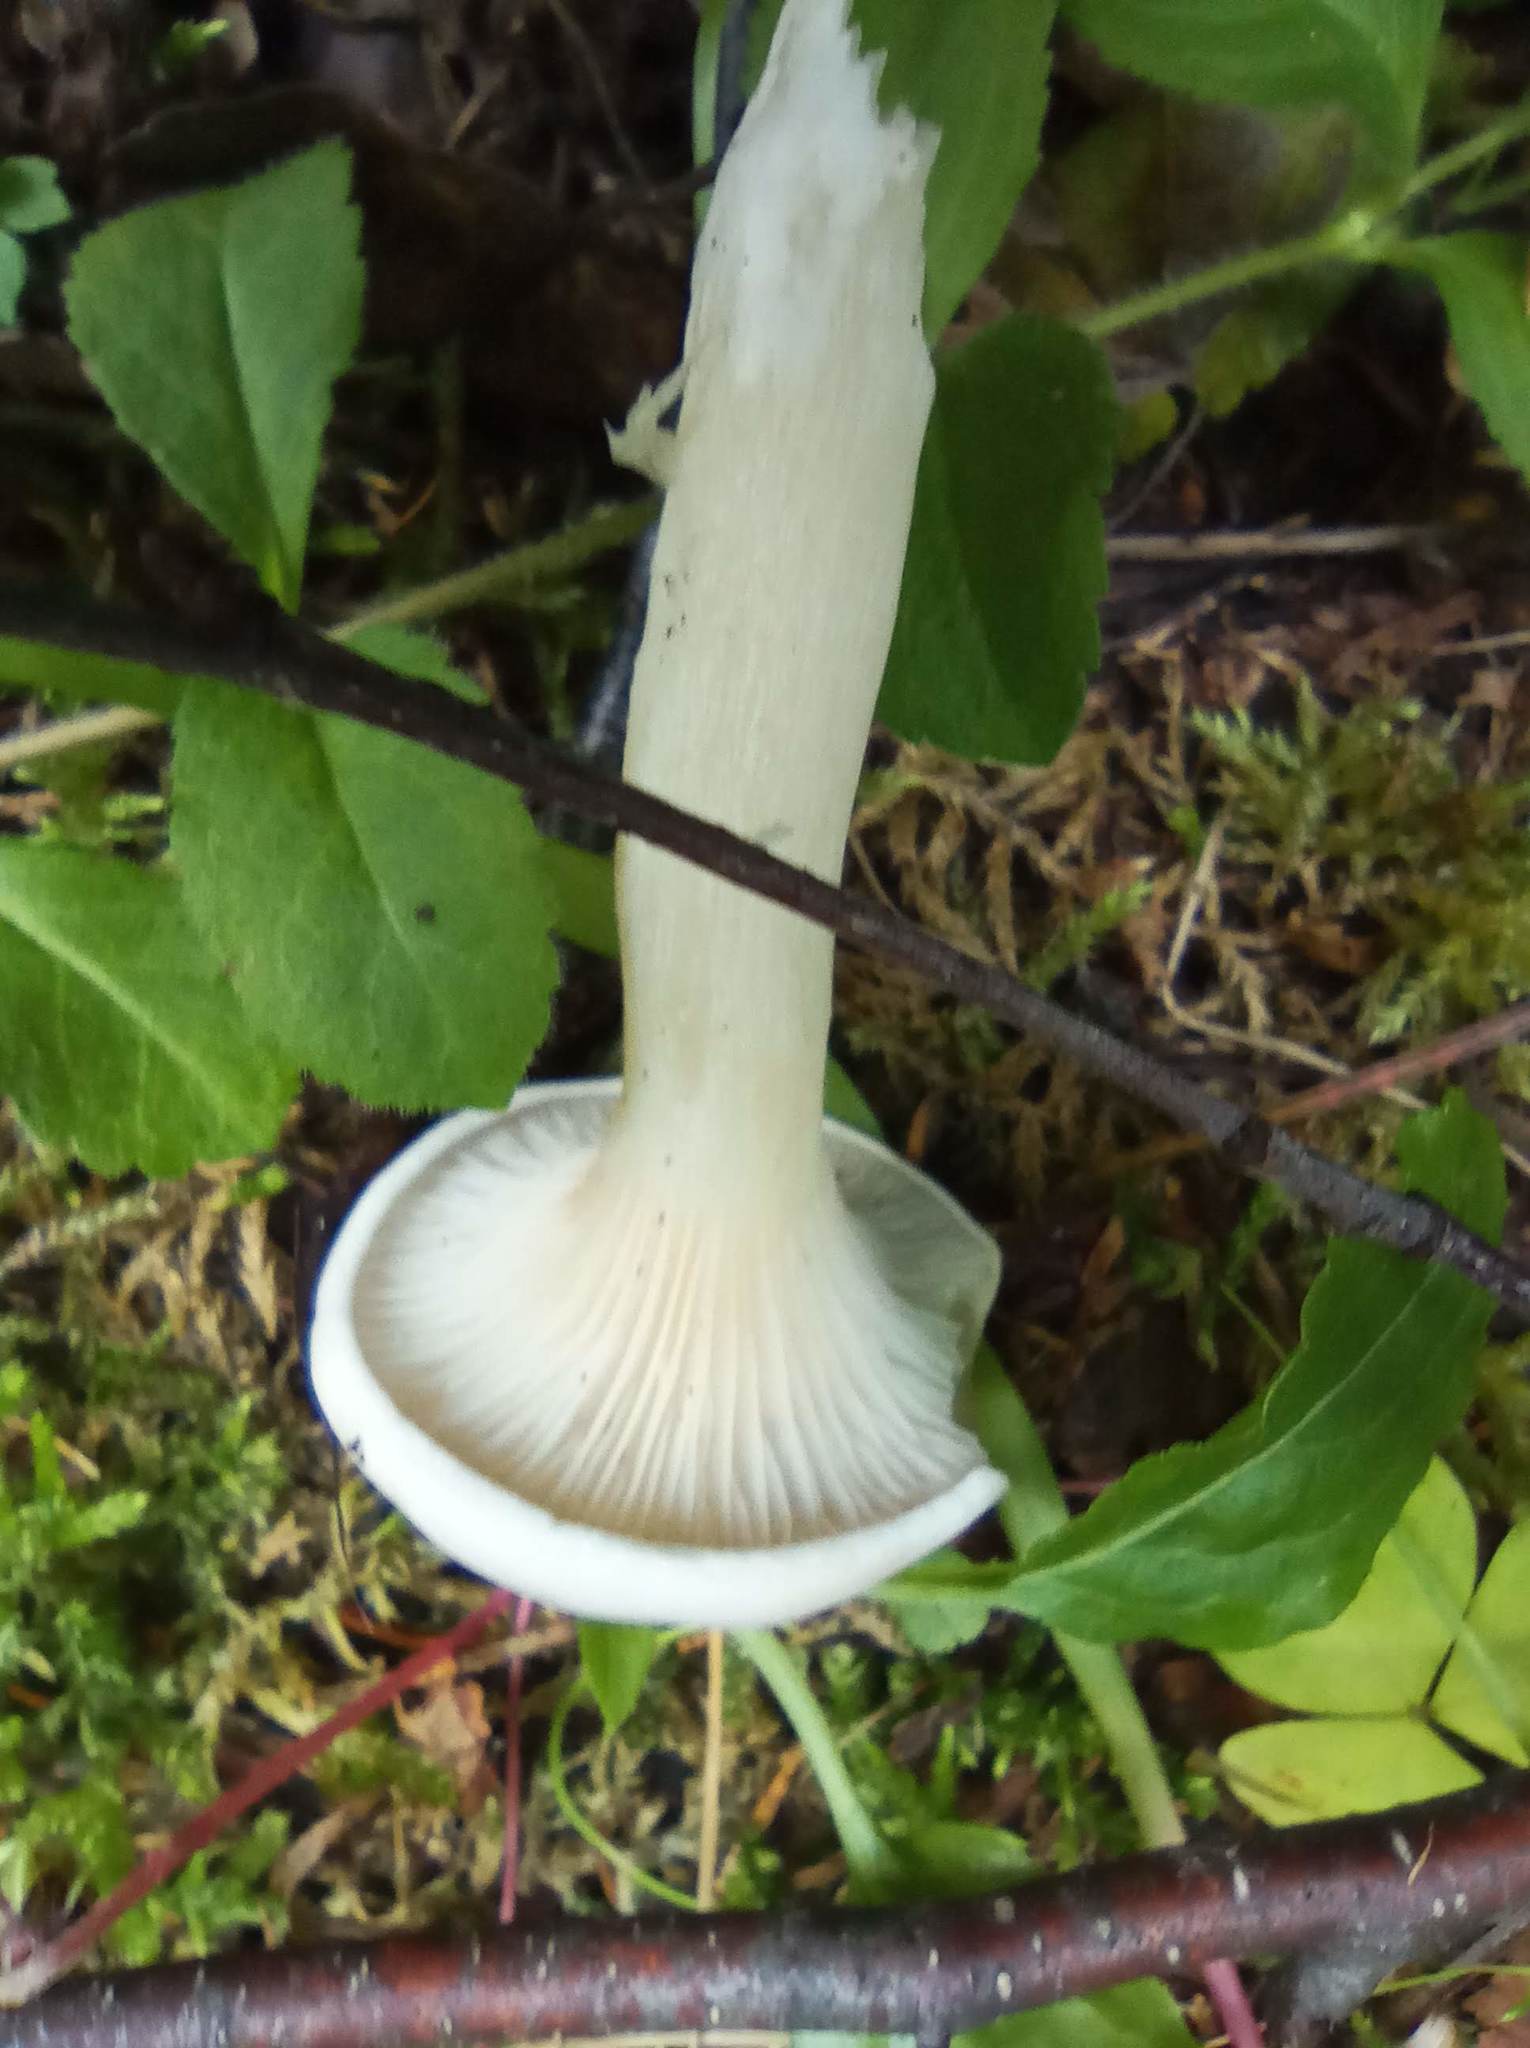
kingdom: Fungi
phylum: Basidiomycota
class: Agaricomycetes
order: Agaricales
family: Hygrophoraceae
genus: Ampulloclitocybe
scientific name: Ampulloclitocybe clavipes
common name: Club foot
